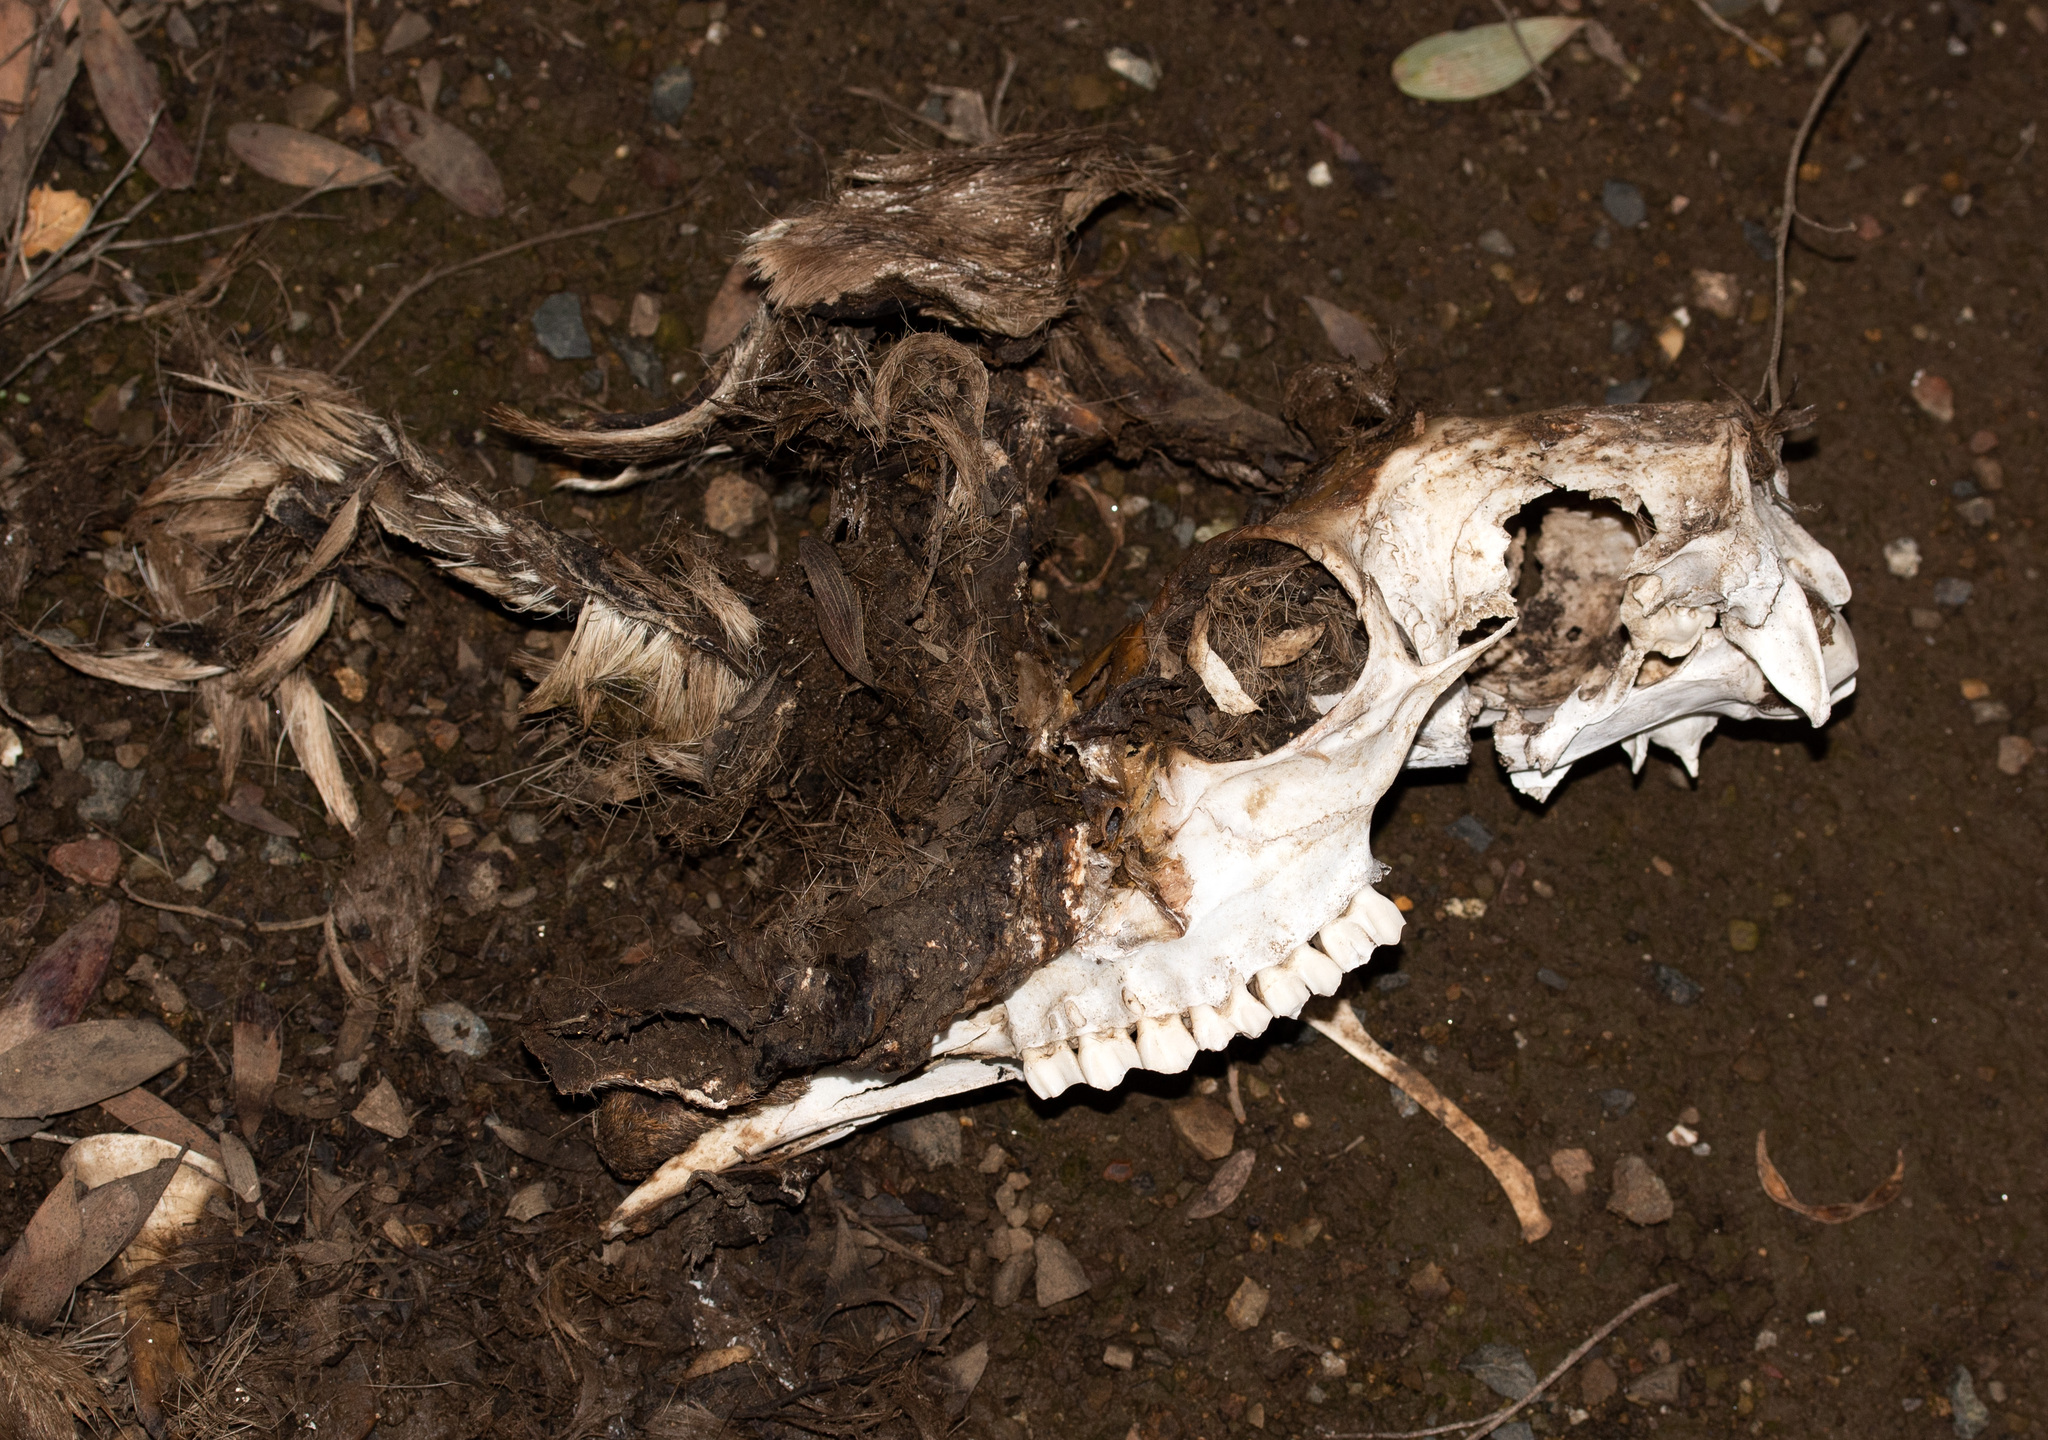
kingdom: Animalia
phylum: Chordata
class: Mammalia
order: Artiodactyla
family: Cervidae
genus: Odocoileus
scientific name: Odocoileus hemionus
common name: Mule deer
